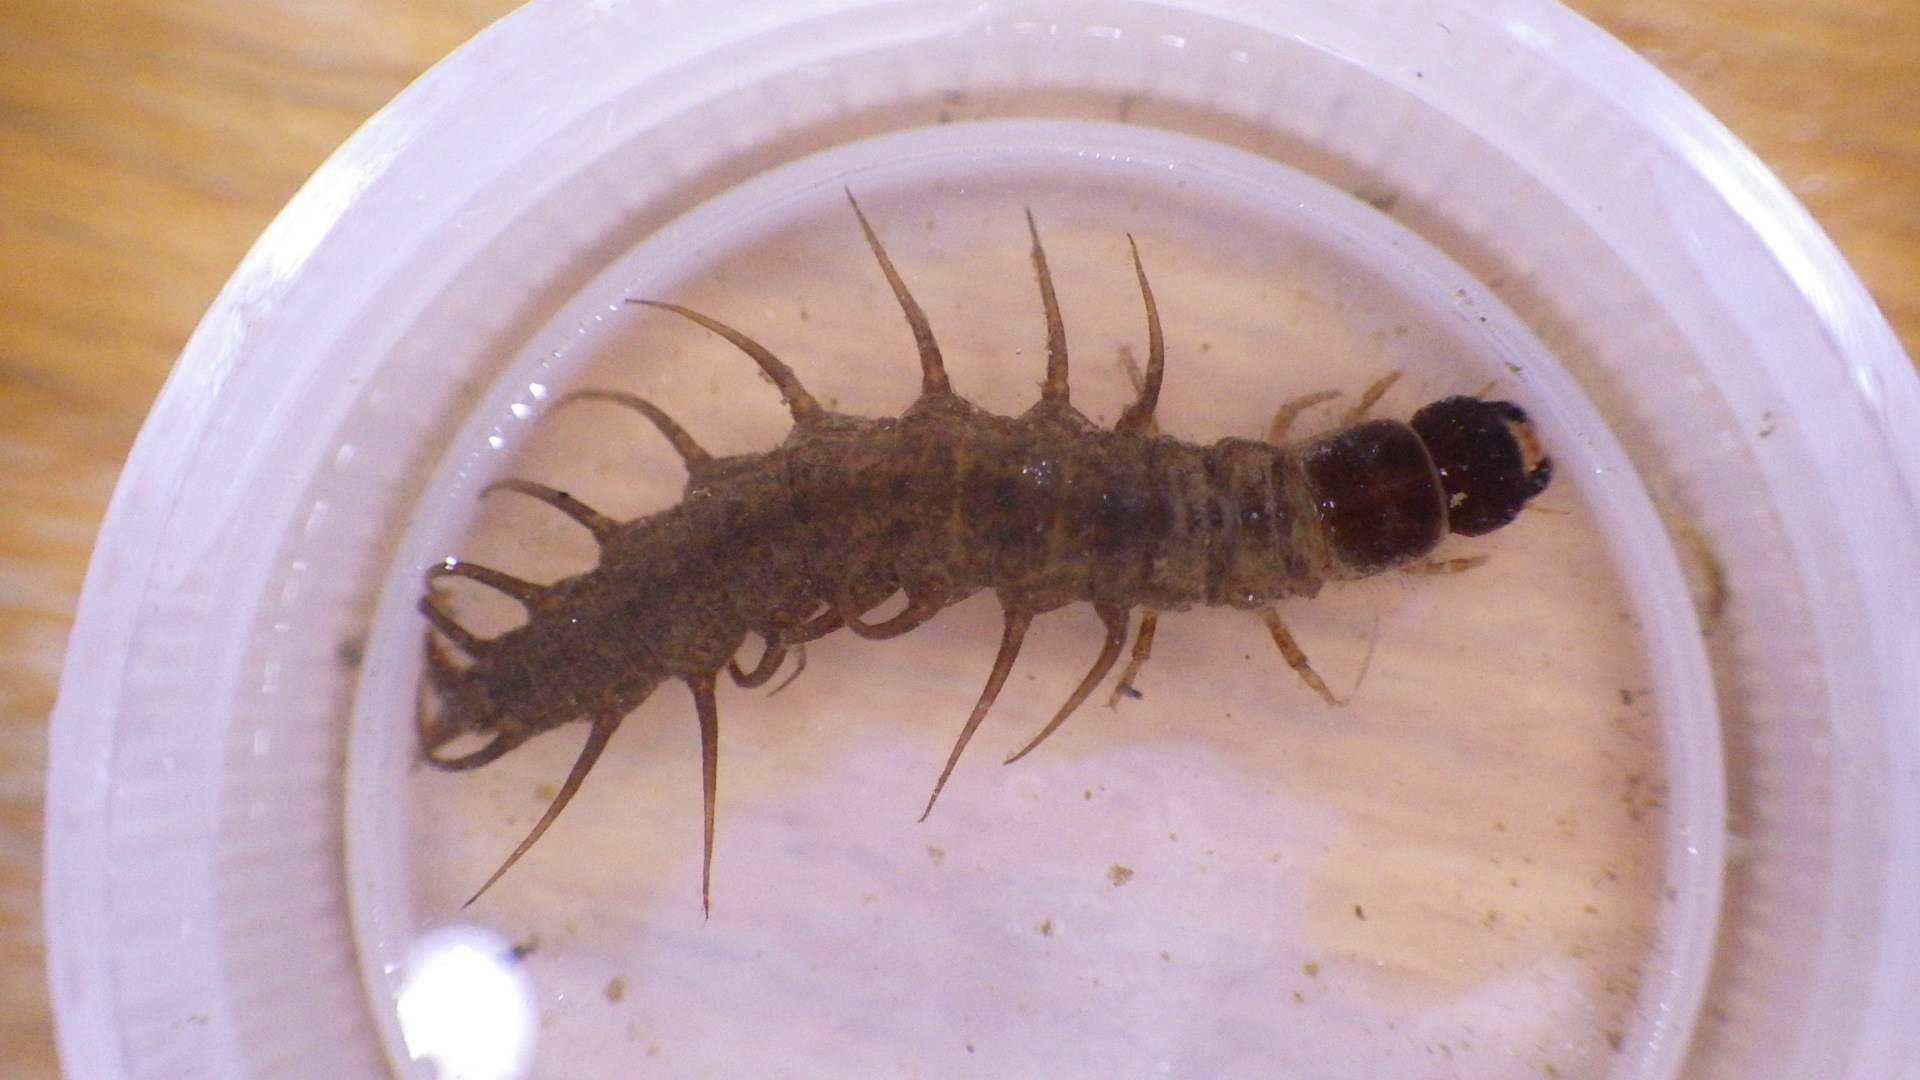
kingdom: Animalia
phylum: Arthropoda
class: Insecta
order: Megaloptera
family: Corydalidae
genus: Nigronia
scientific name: Nigronia serricornis
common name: Serrate dark fishfly
